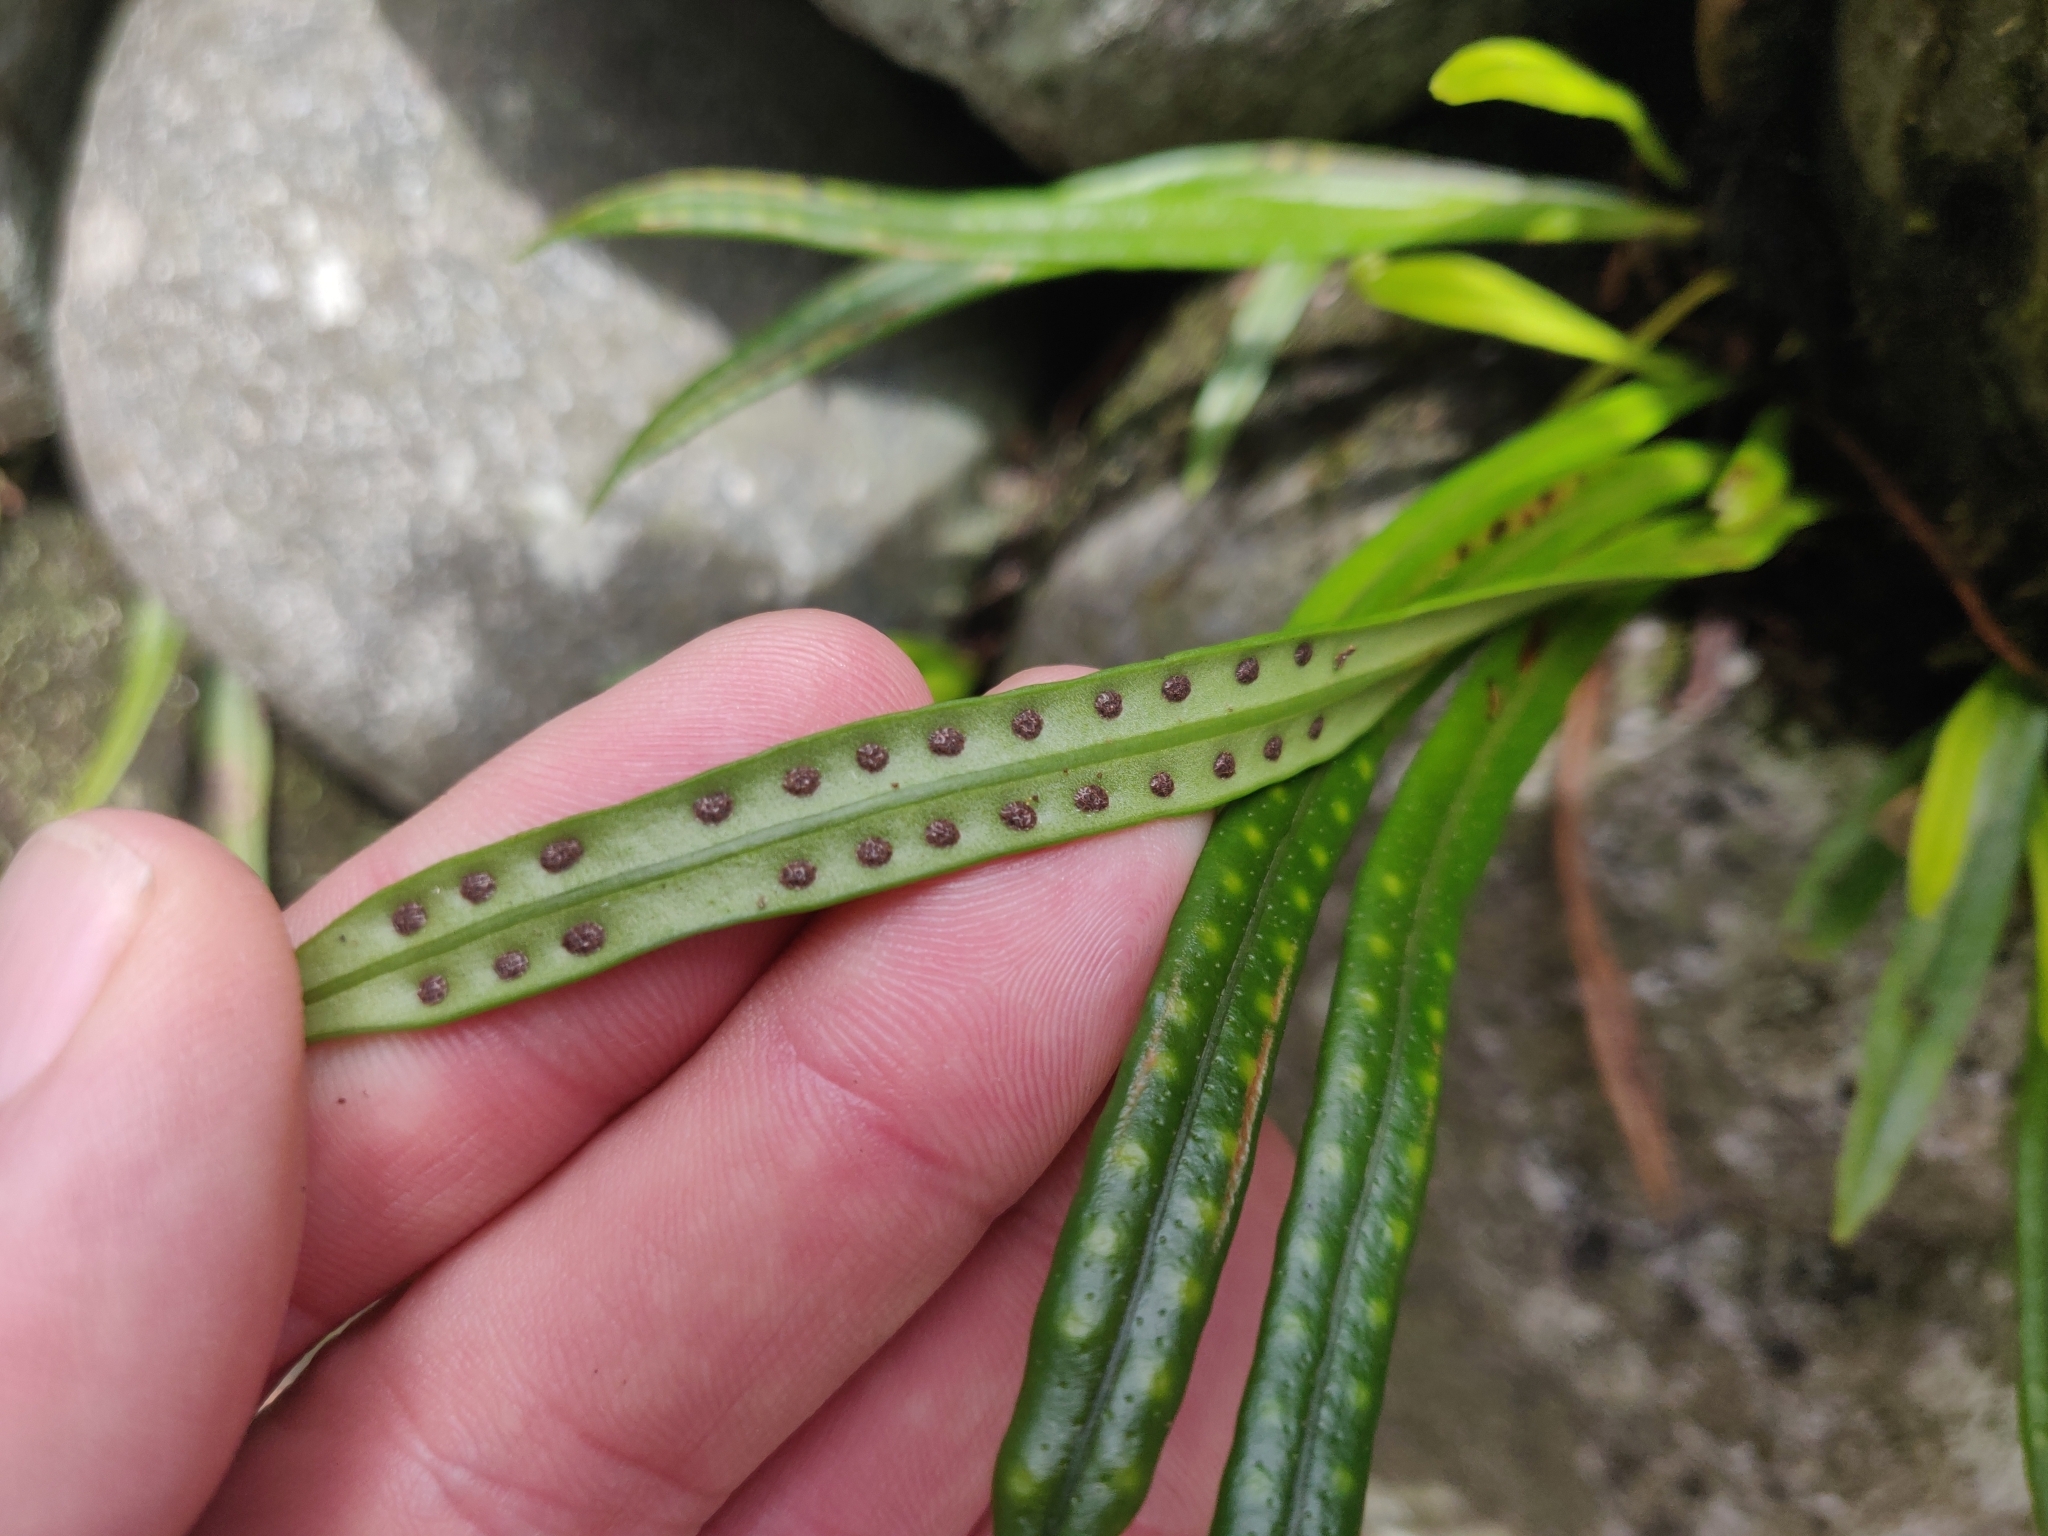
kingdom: Plantae
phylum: Tracheophyta
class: Polypodiopsida
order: Polypodiales
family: Polypodiaceae
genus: Lepisorus
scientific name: Lepisorus thunbergianus
